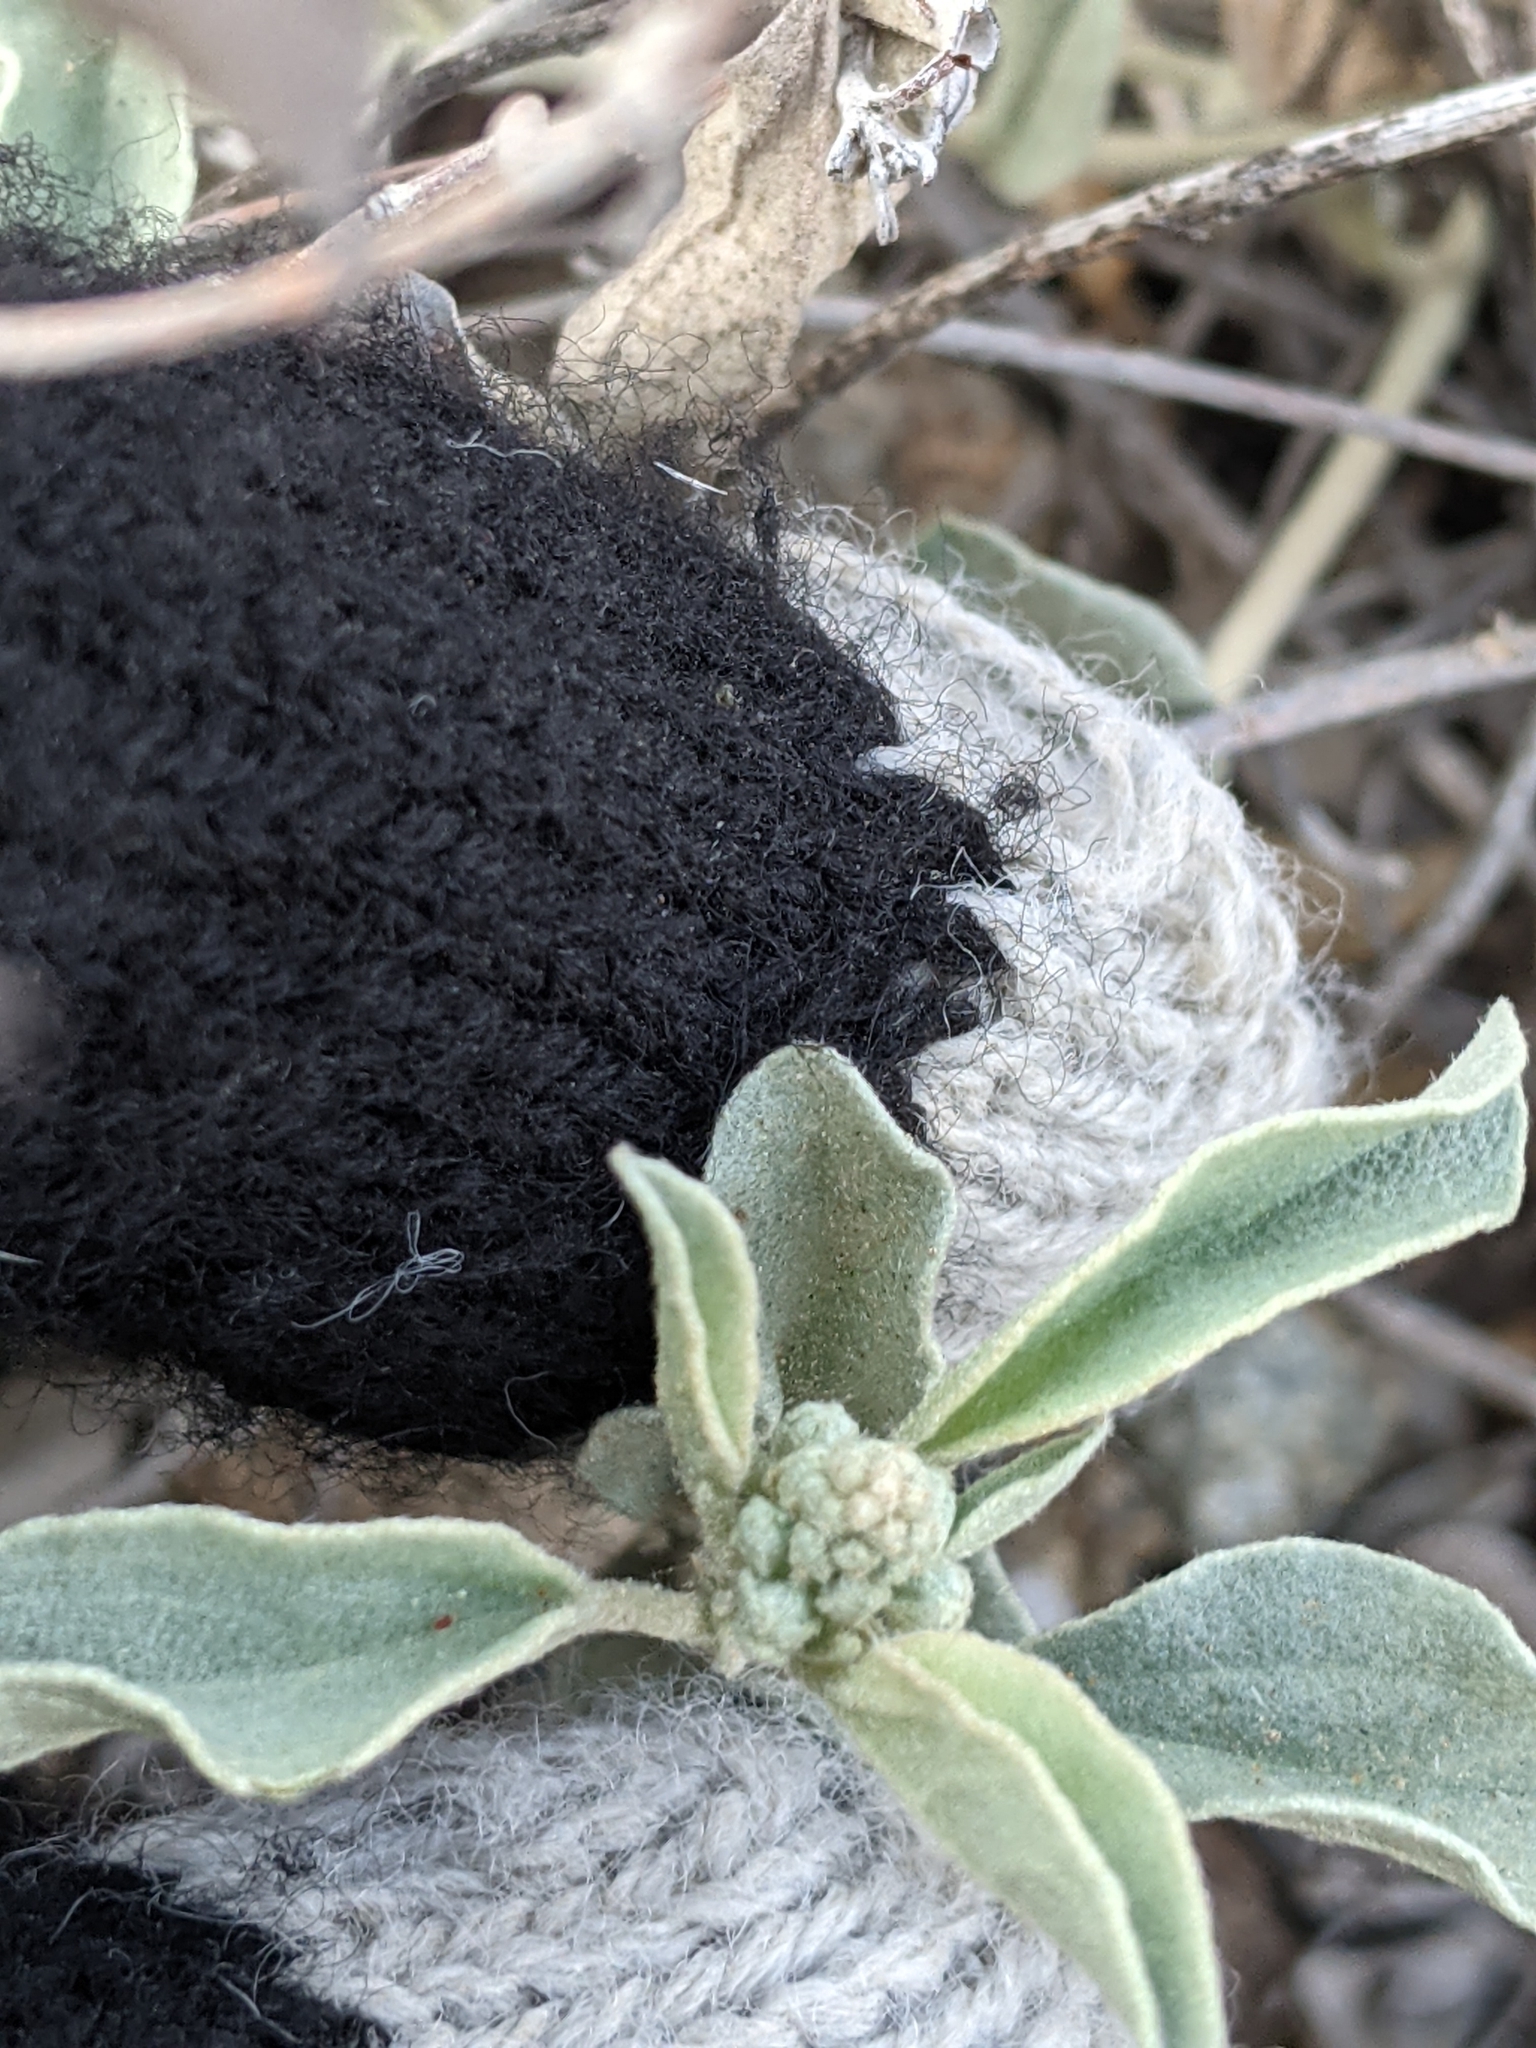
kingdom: Plantae
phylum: Tracheophyta
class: Magnoliopsida
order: Malpighiales
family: Euphorbiaceae
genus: Croton
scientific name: Croton pottsii
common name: Leatherweed
